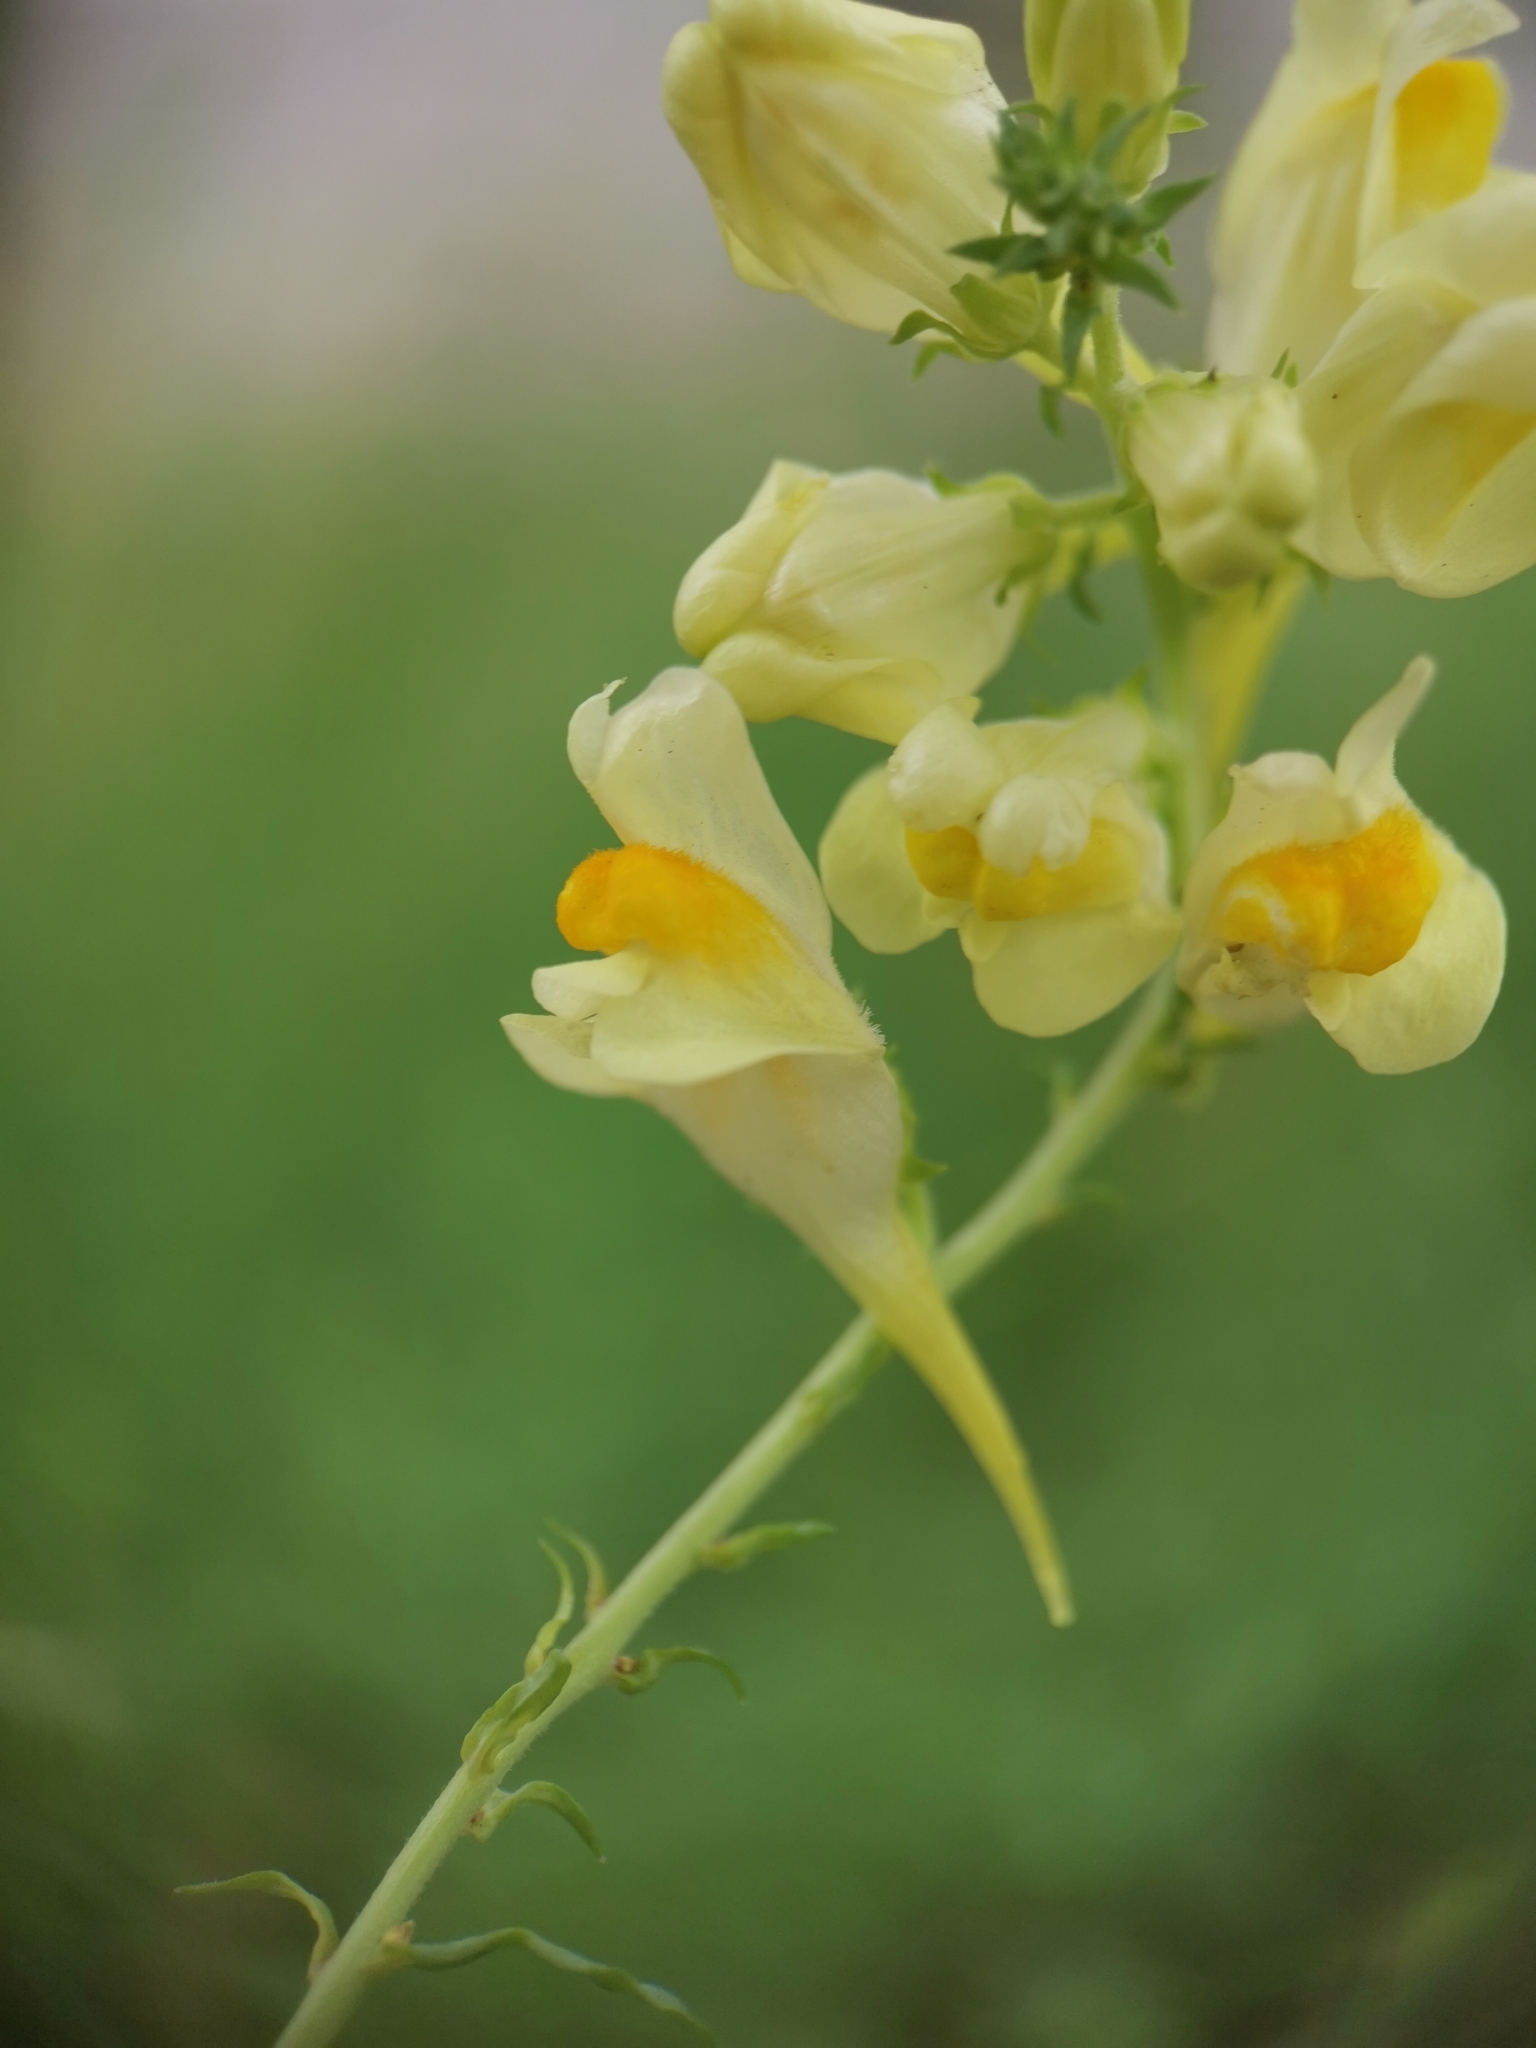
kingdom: Plantae
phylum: Tracheophyta
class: Magnoliopsida
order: Lamiales
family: Plantaginaceae
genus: Linaria
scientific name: Linaria vulgaris
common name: Butter and eggs
